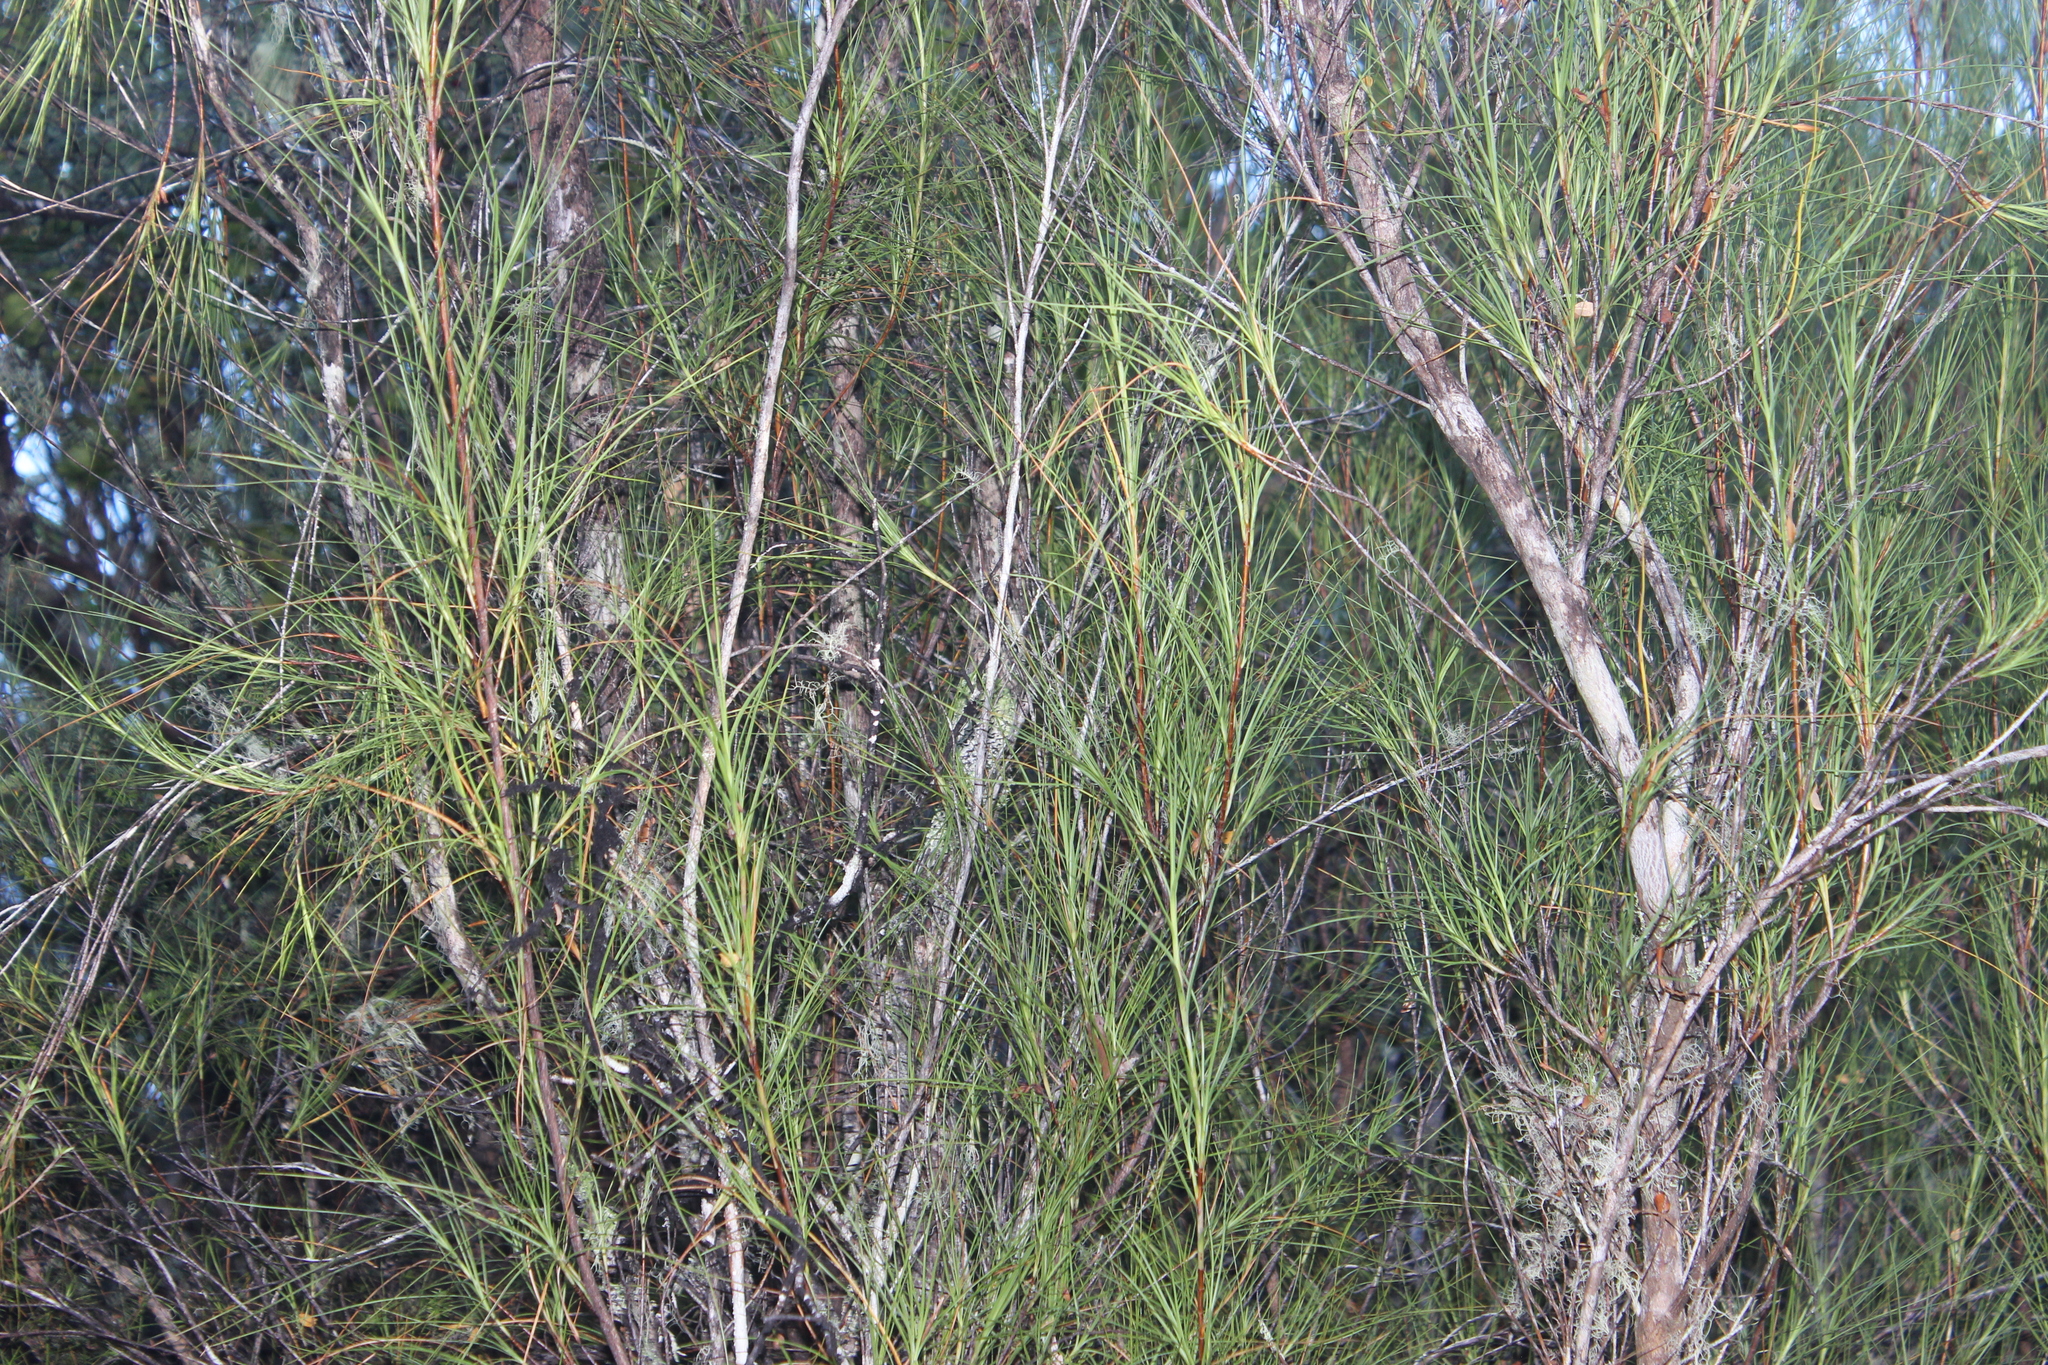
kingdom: Plantae
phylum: Tracheophyta
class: Magnoliopsida
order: Ericales
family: Ericaceae
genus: Dracophyllum
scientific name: Dracophyllum filifolium
